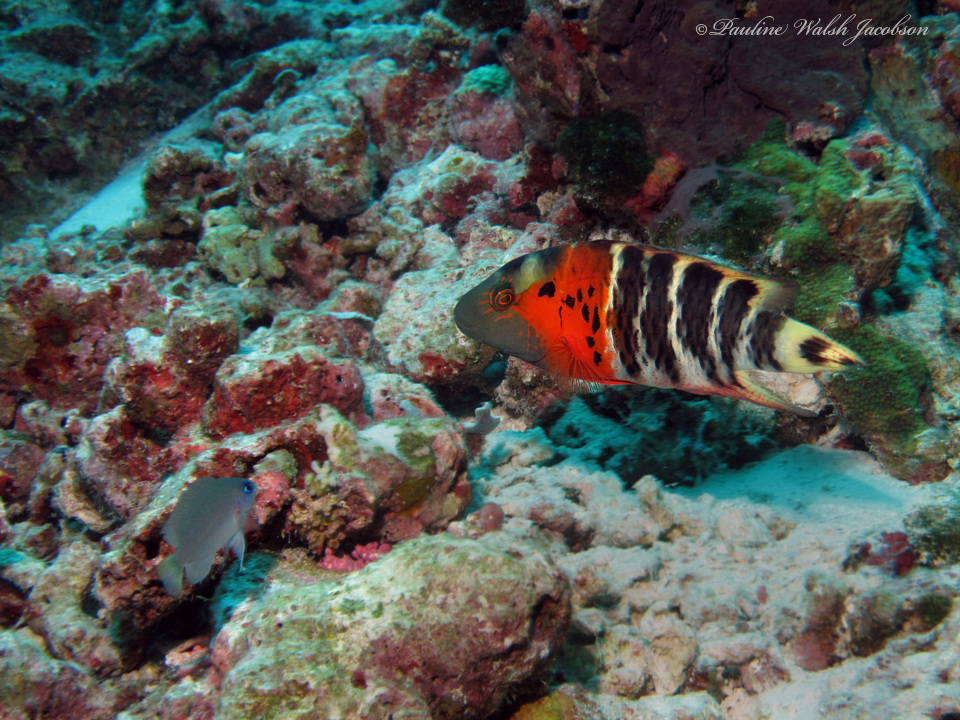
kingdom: Animalia
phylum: Chordata
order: Perciformes
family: Labridae
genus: Cheilinus
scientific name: Cheilinus fasciatus
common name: Red-breasted wrasse
